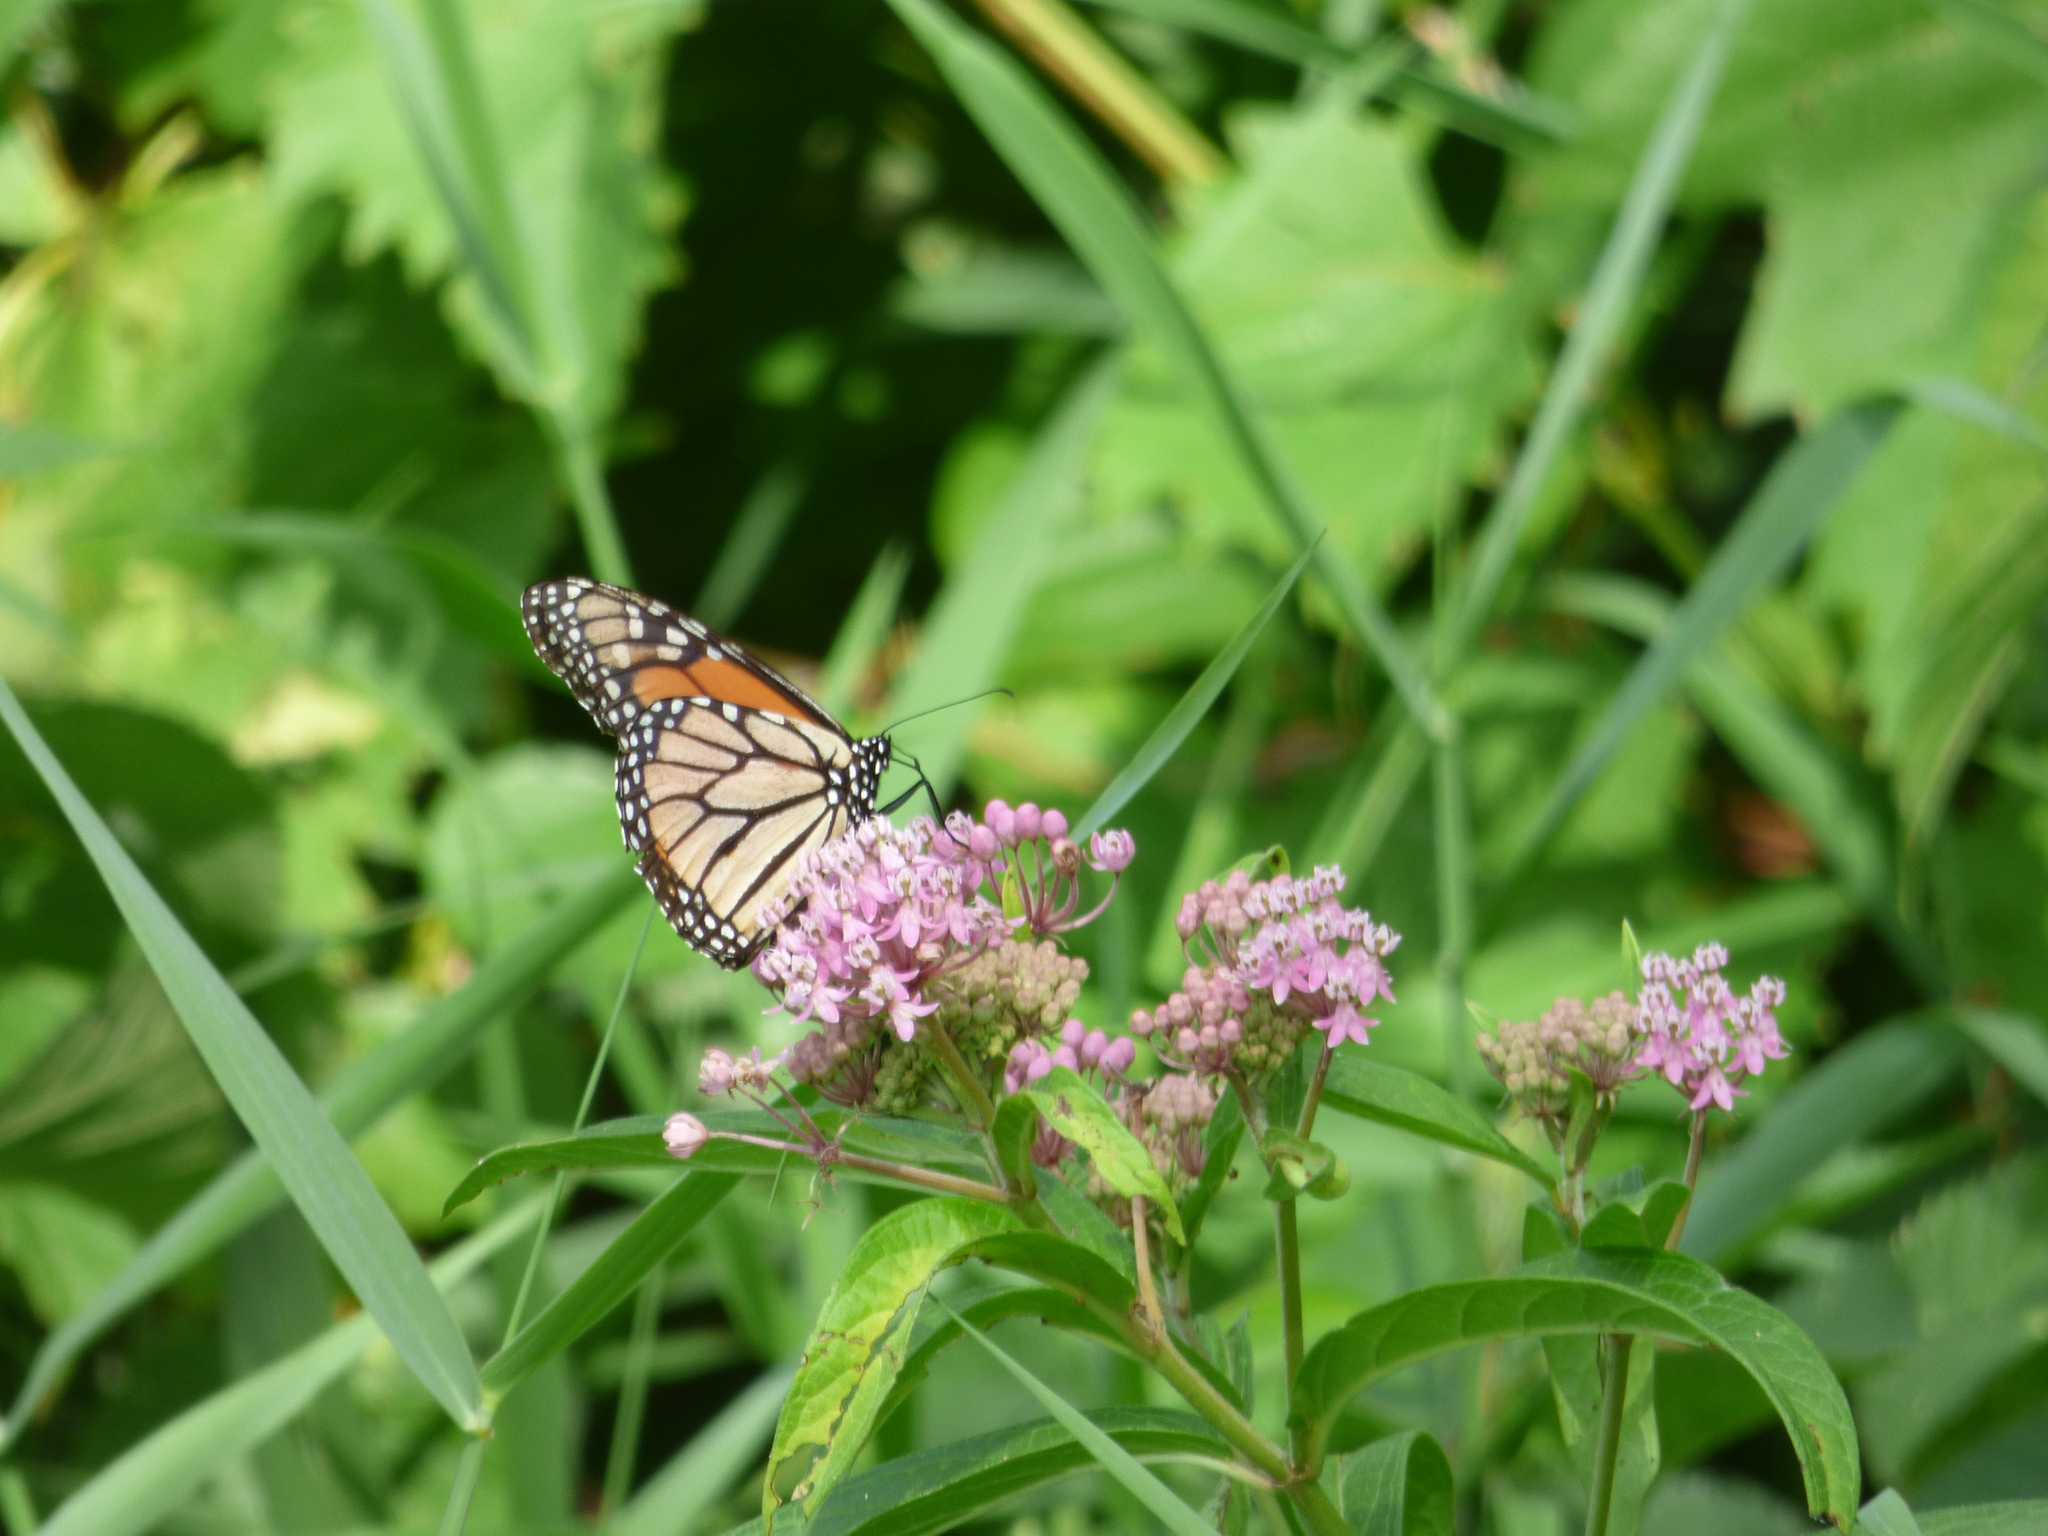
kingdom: Animalia
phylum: Arthropoda
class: Insecta
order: Lepidoptera
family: Nymphalidae
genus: Danaus
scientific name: Danaus plexippus
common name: Monarch
